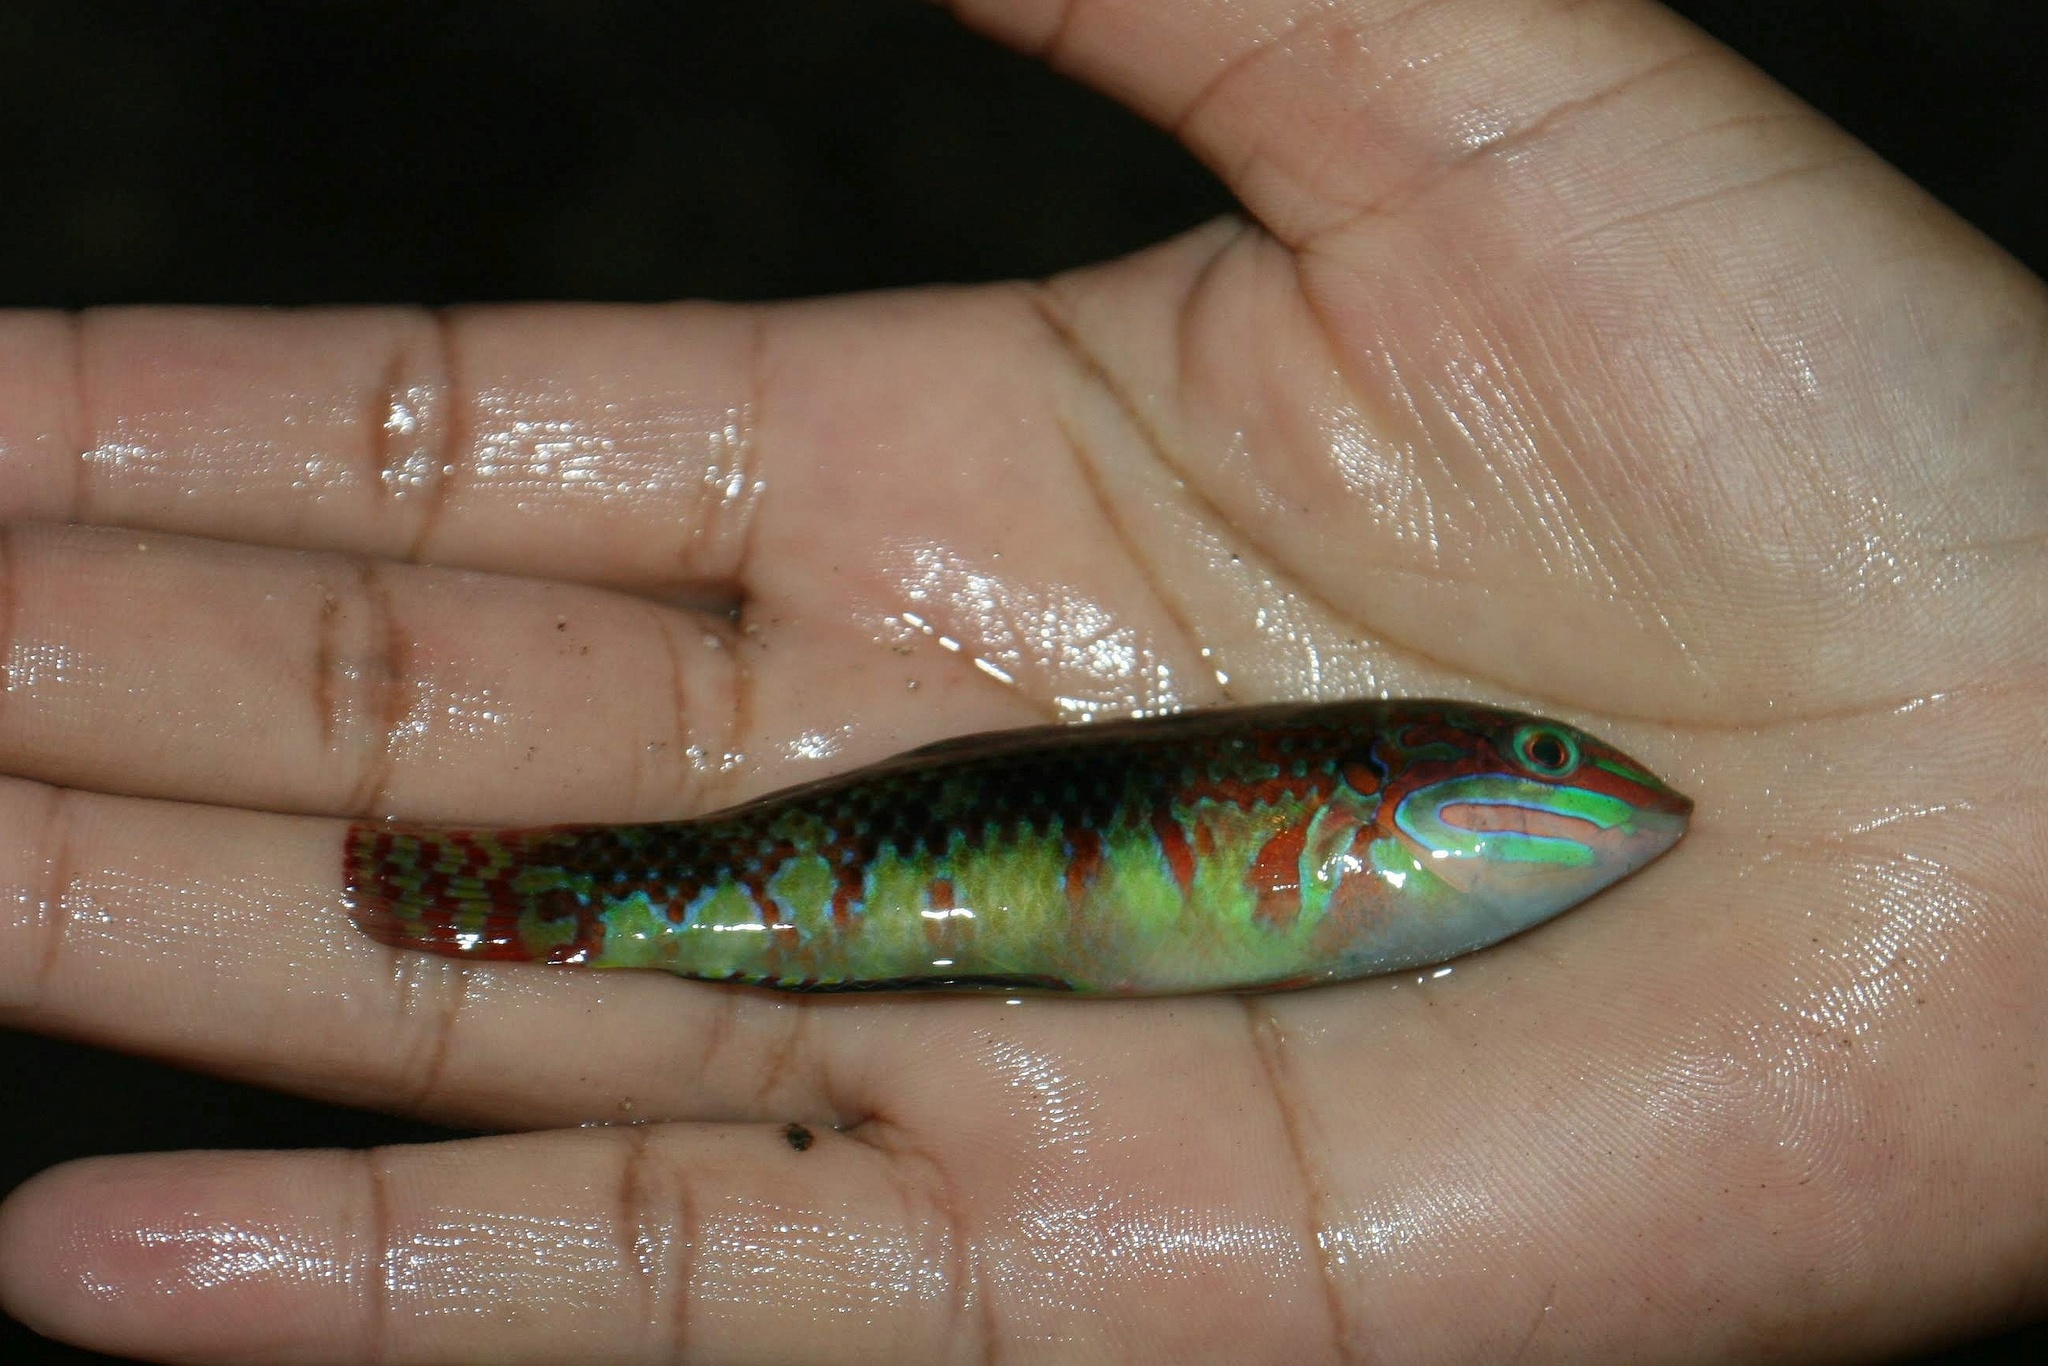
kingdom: Animalia
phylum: Chordata
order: Perciformes
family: Labridae
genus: Halichoeres
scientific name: Halichoeres claudia
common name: Claudia's wrasse
